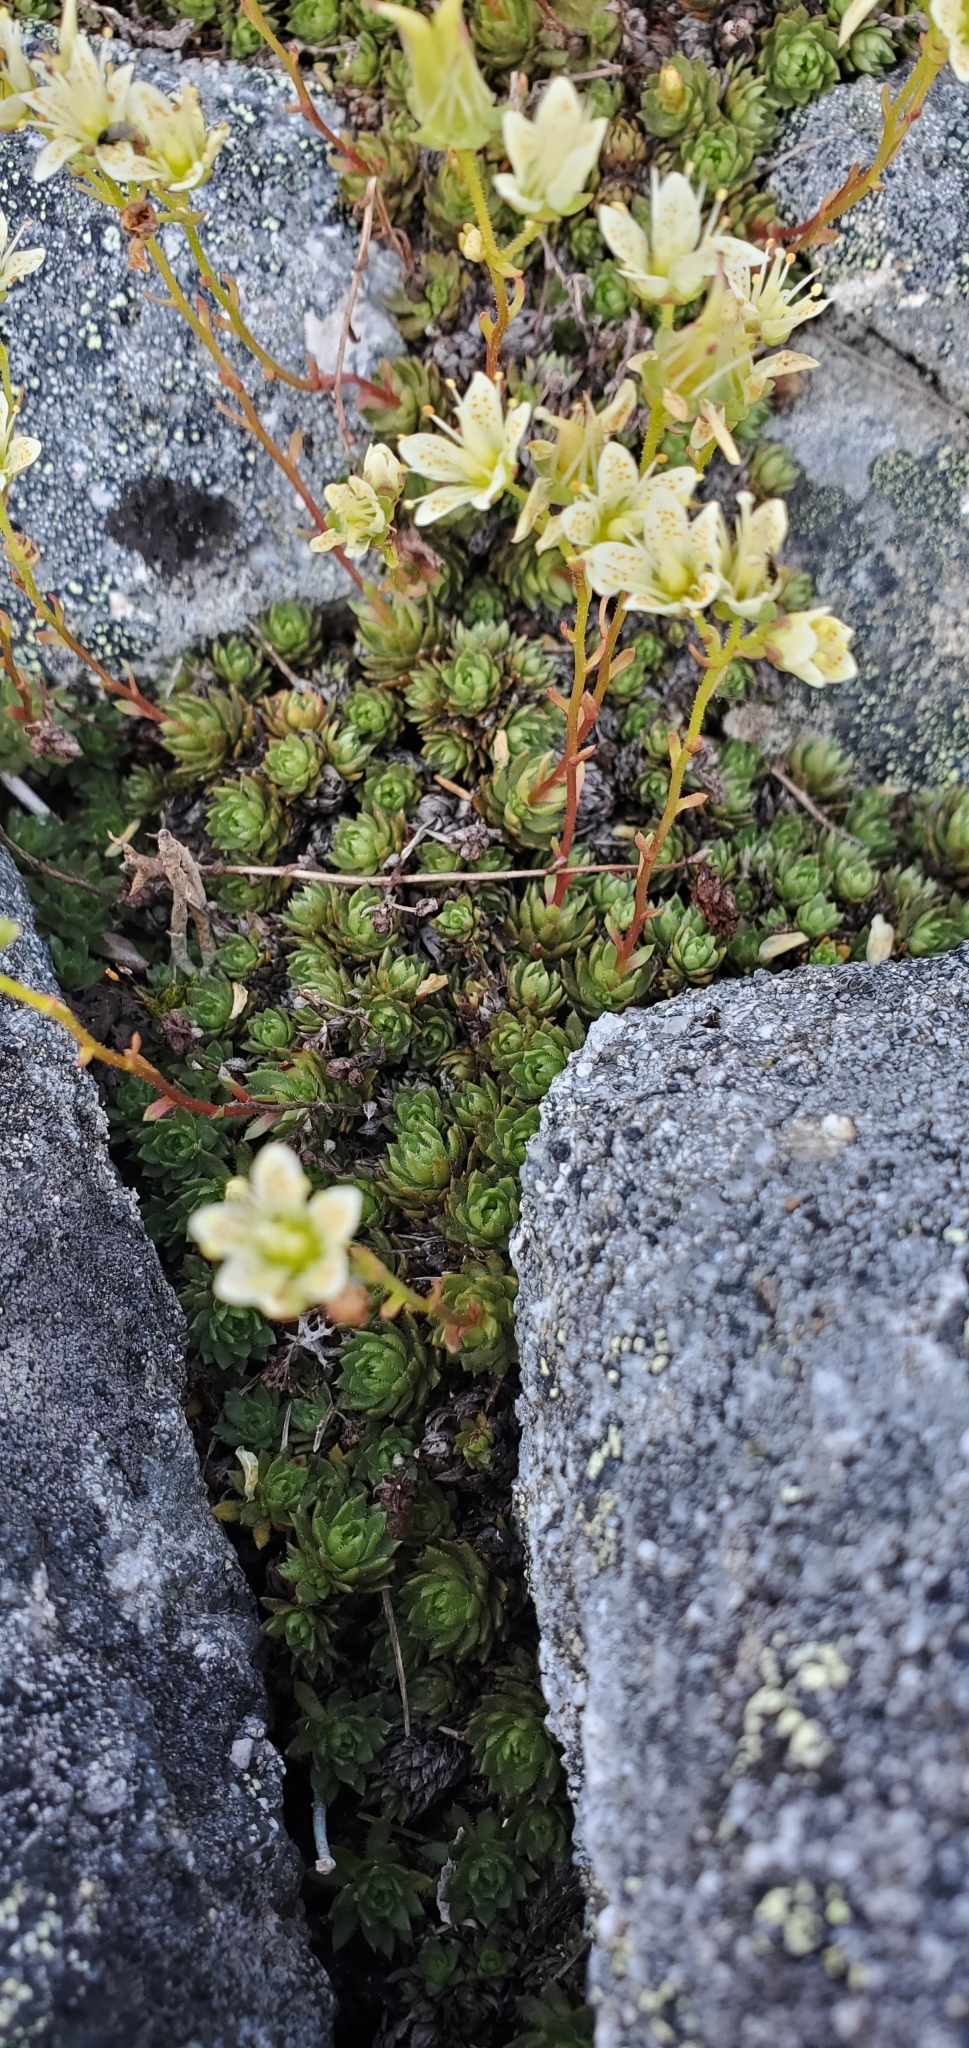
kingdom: Plantae
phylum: Tracheophyta
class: Magnoliopsida
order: Saxifragales
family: Saxifragaceae
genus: Saxifraga
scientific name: Saxifraga bronchialis
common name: Matted saxifrage
